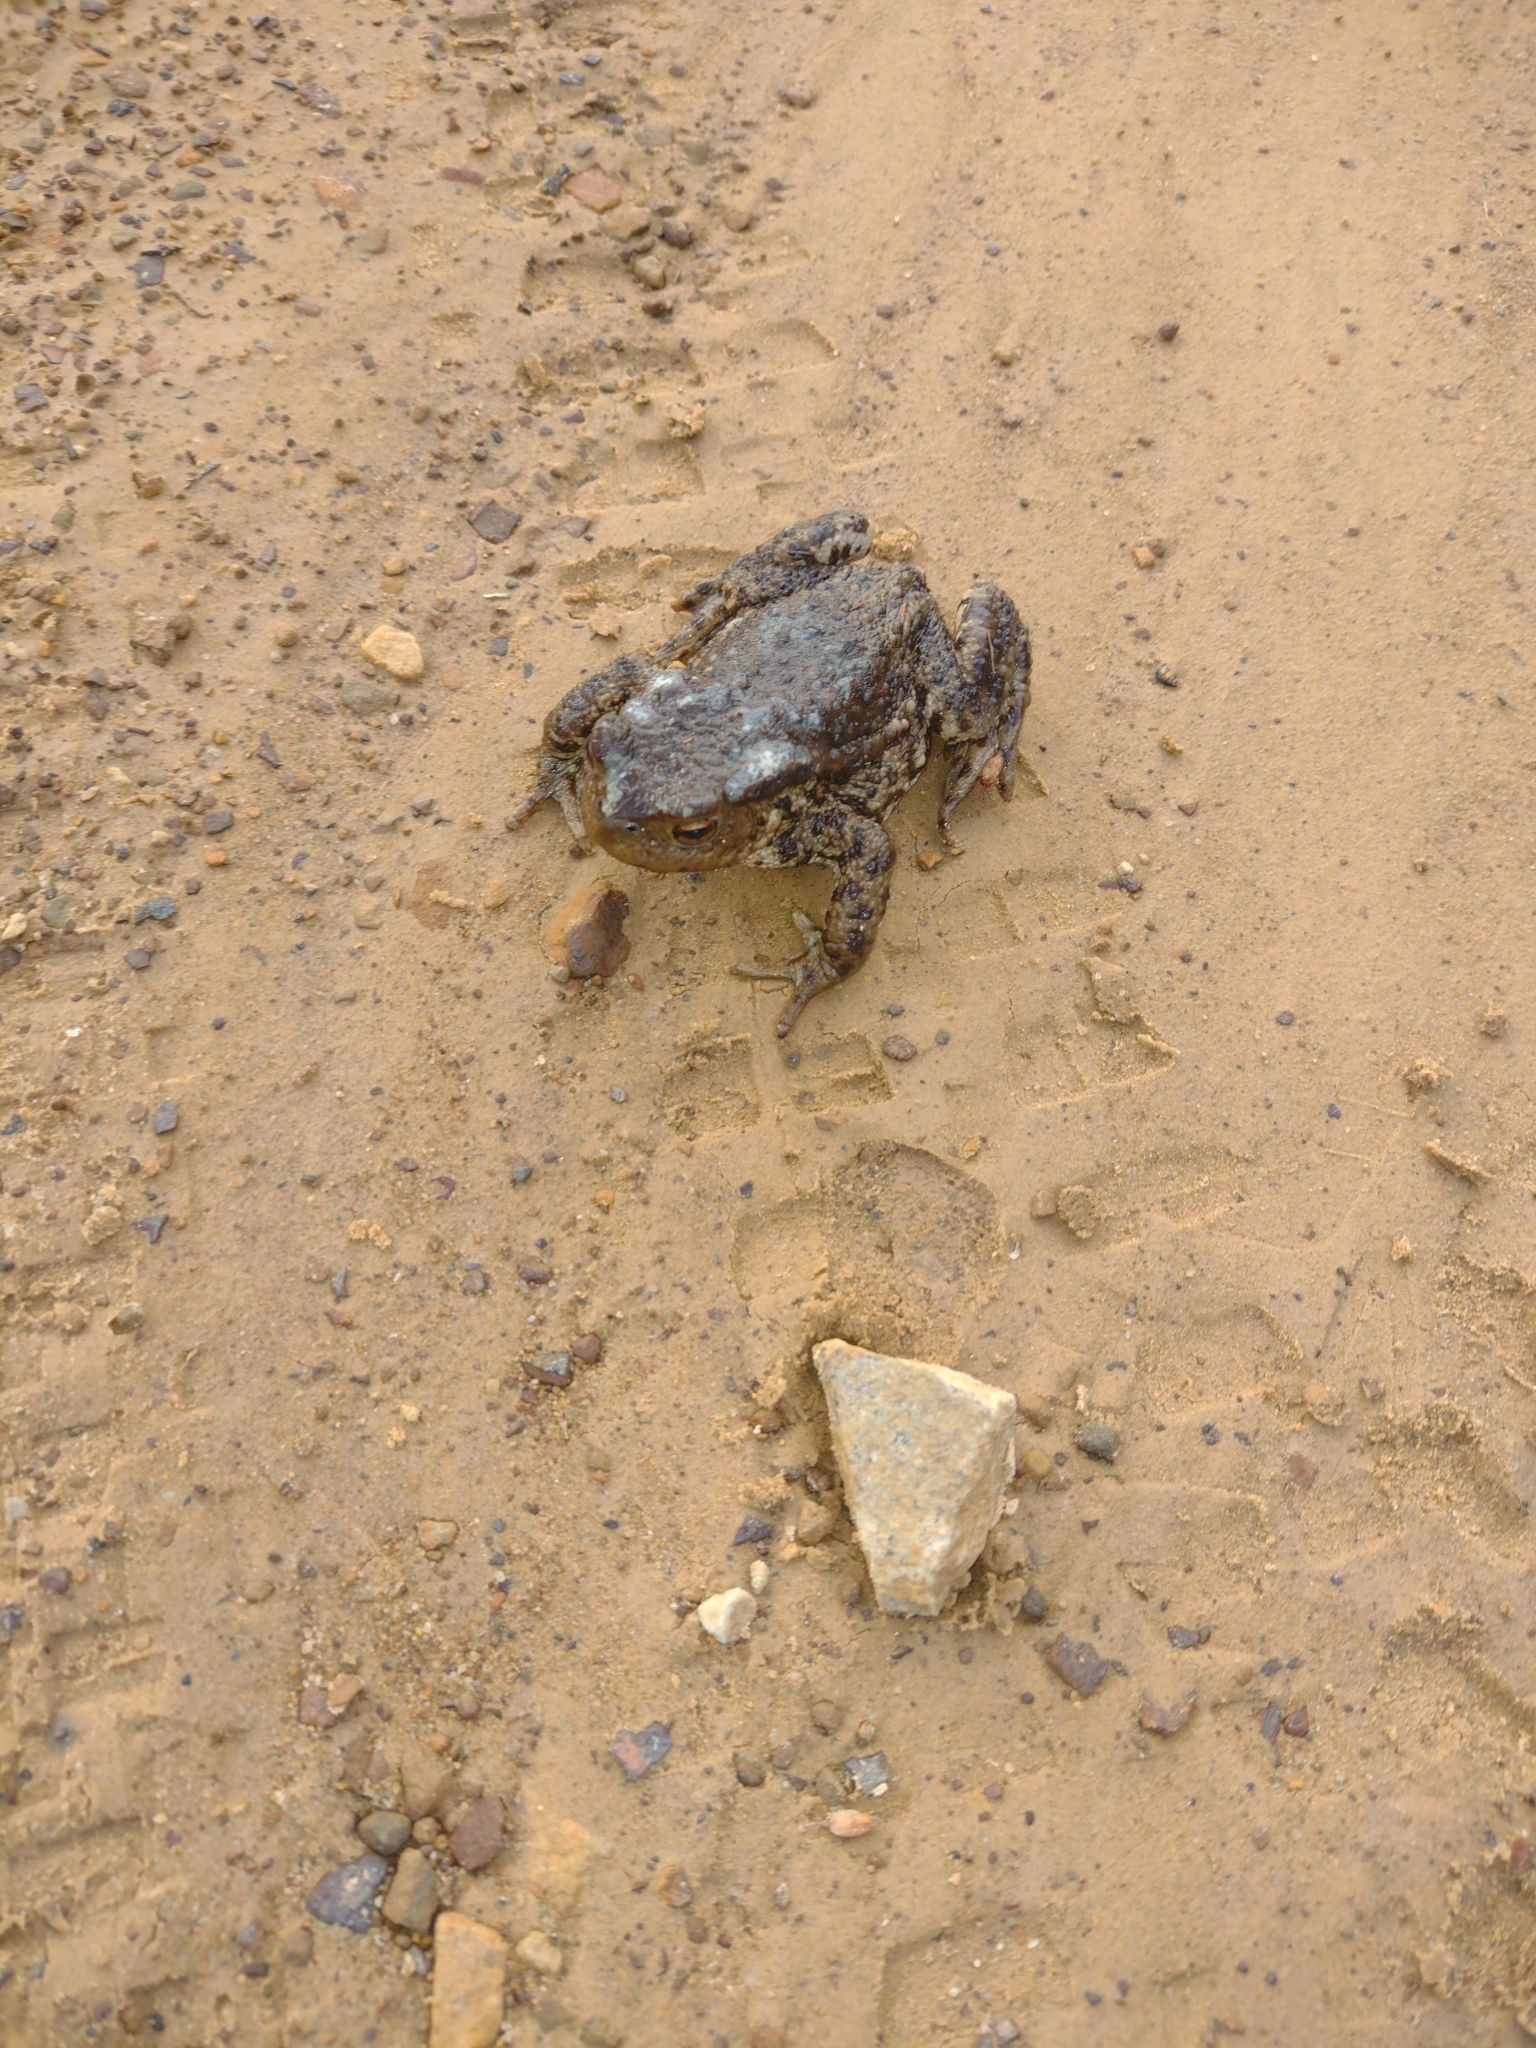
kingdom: Animalia
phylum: Chordata
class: Amphibia
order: Anura
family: Bufonidae
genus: Bufo
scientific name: Bufo bufo
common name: Common toad
